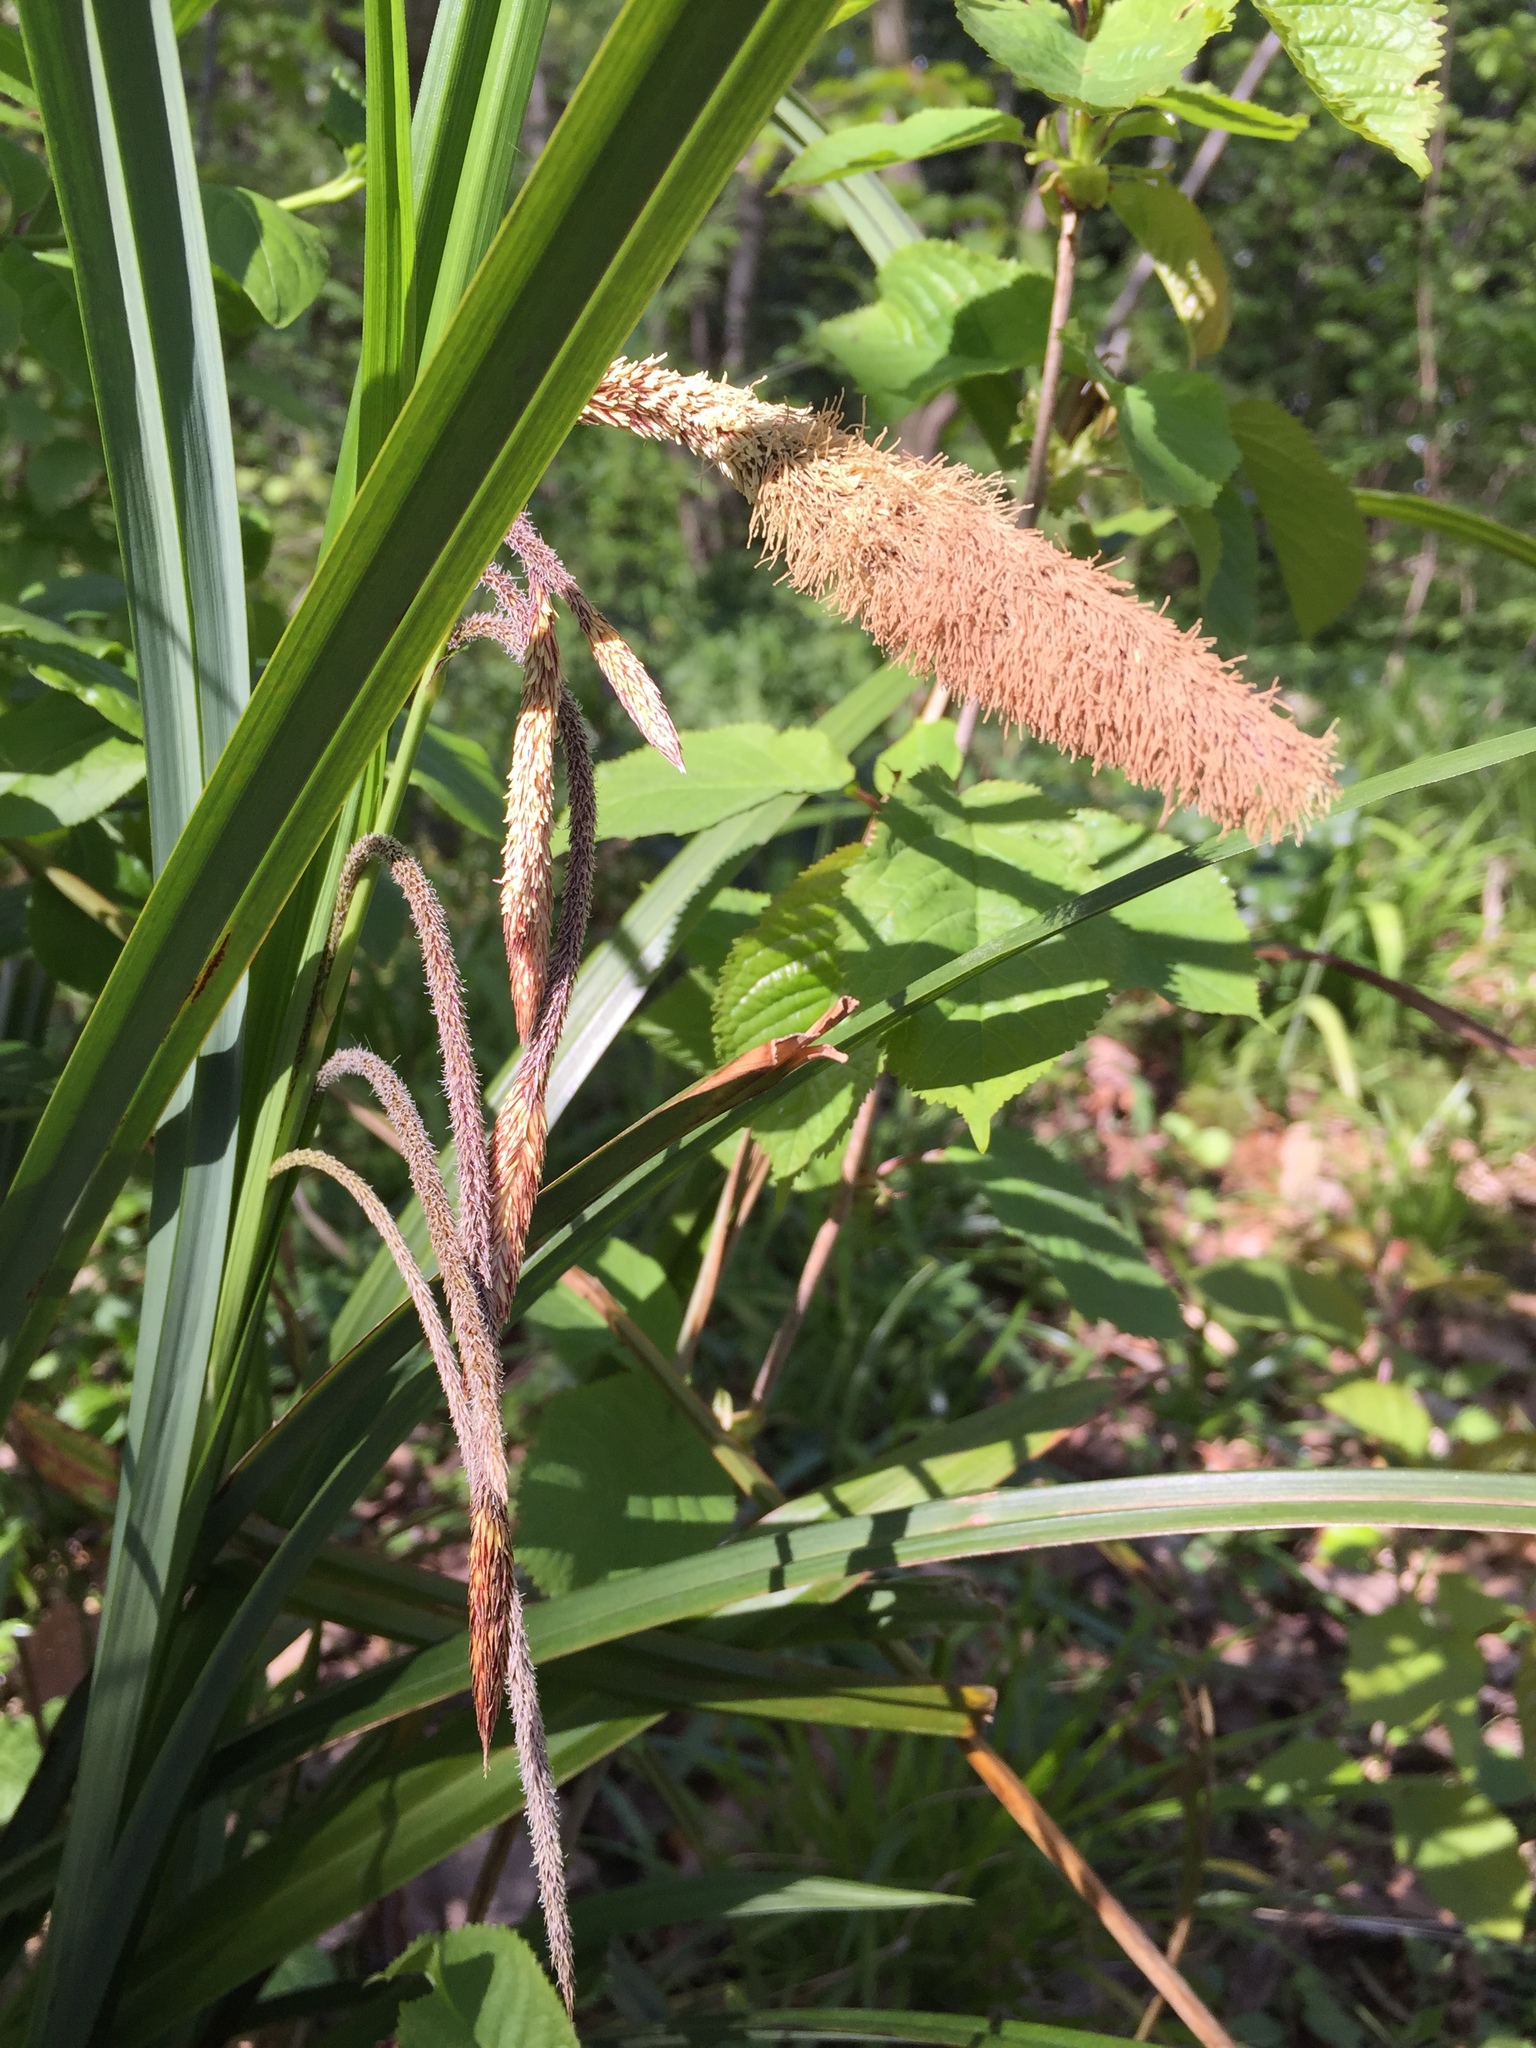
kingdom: Plantae
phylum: Tracheophyta
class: Liliopsida
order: Poales
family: Cyperaceae
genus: Carex
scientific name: Carex pendula
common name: Pendulous sedge
